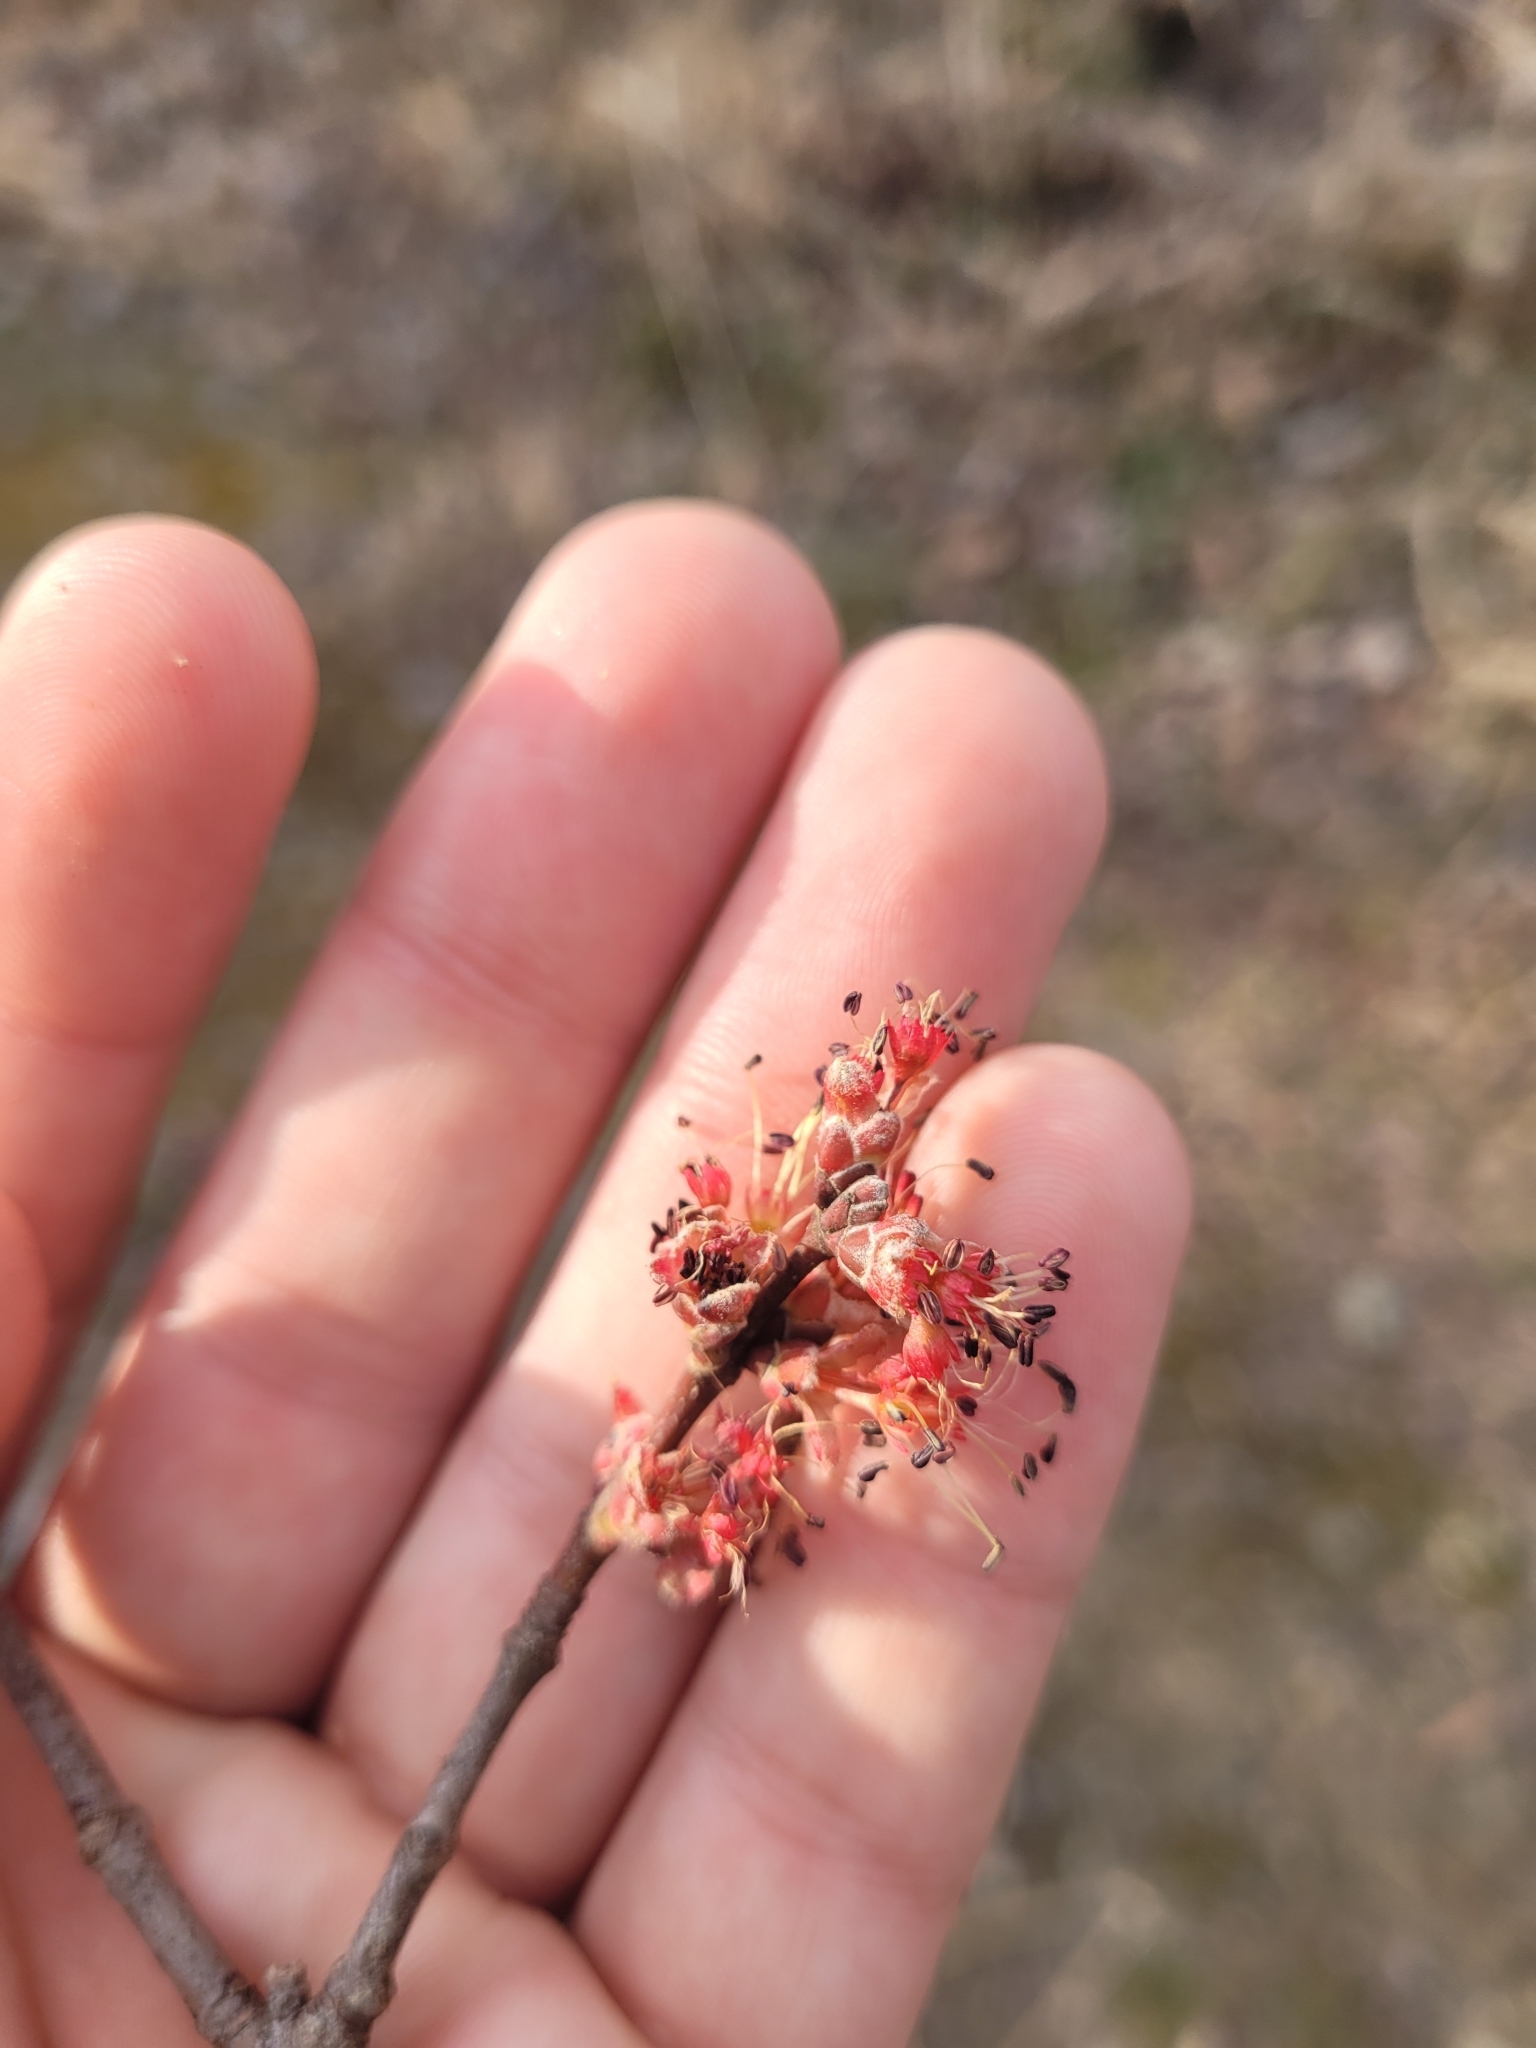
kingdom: Plantae
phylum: Tracheophyta
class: Magnoliopsida
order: Sapindales
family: Sapindaceae
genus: Acer
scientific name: Acer rubrum
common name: Red maple
